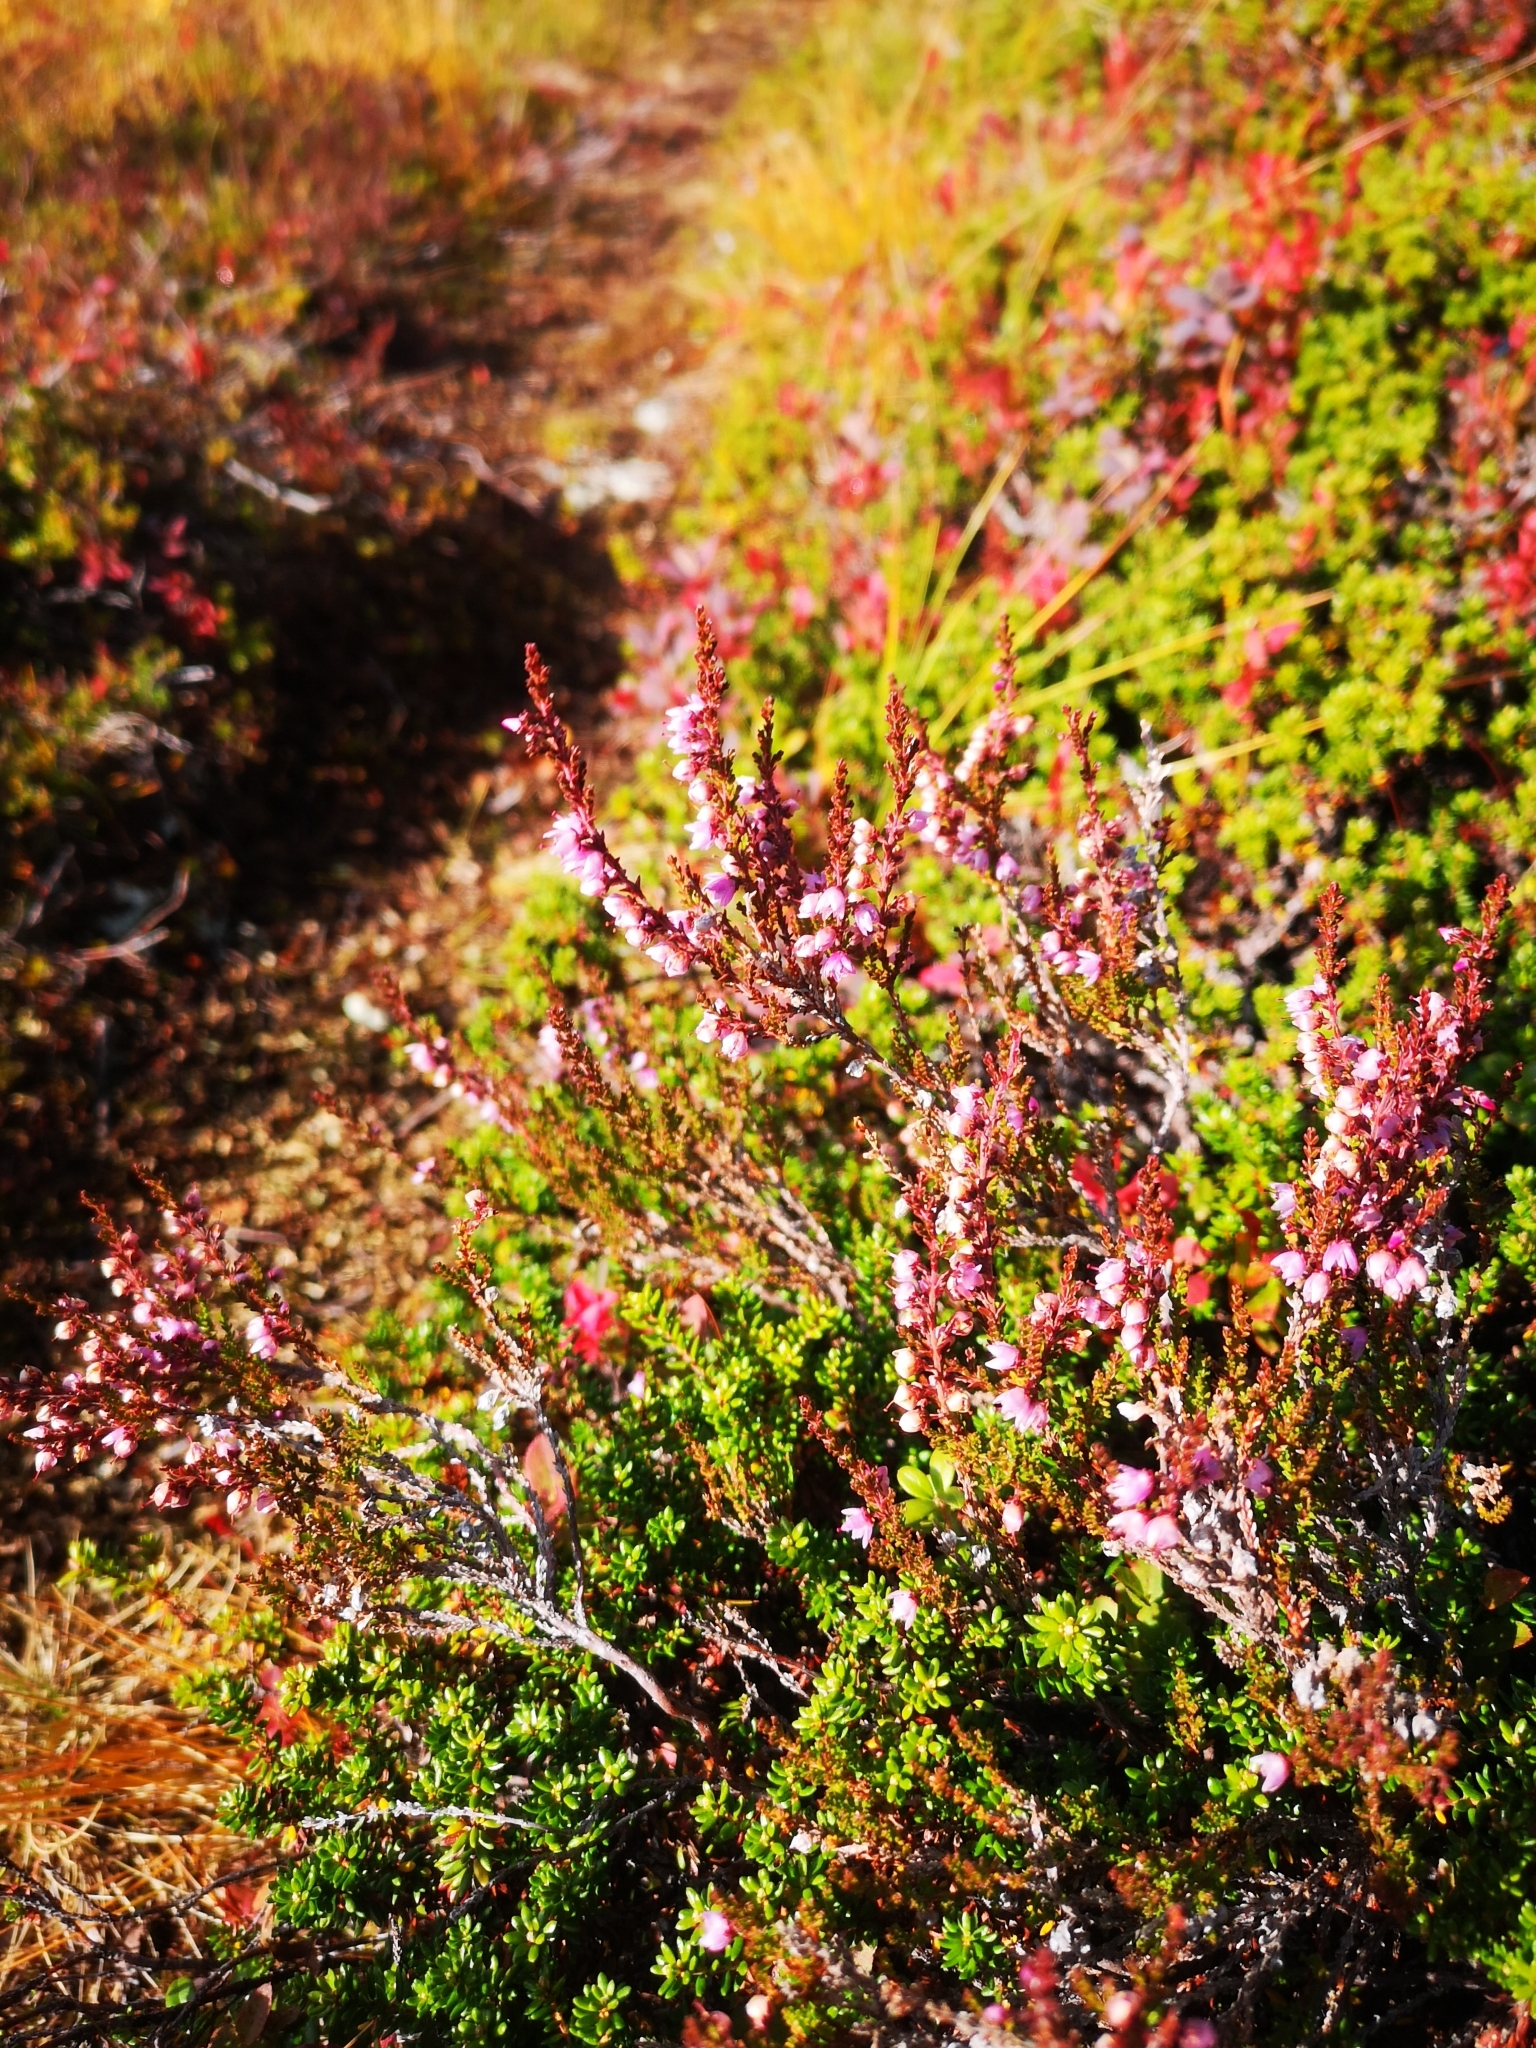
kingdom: Plantae
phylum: Tracheophyta
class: Magnoliopsida
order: Ericales
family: Ericaceae
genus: Calluna
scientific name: Calluna vulgaris
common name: Heather
